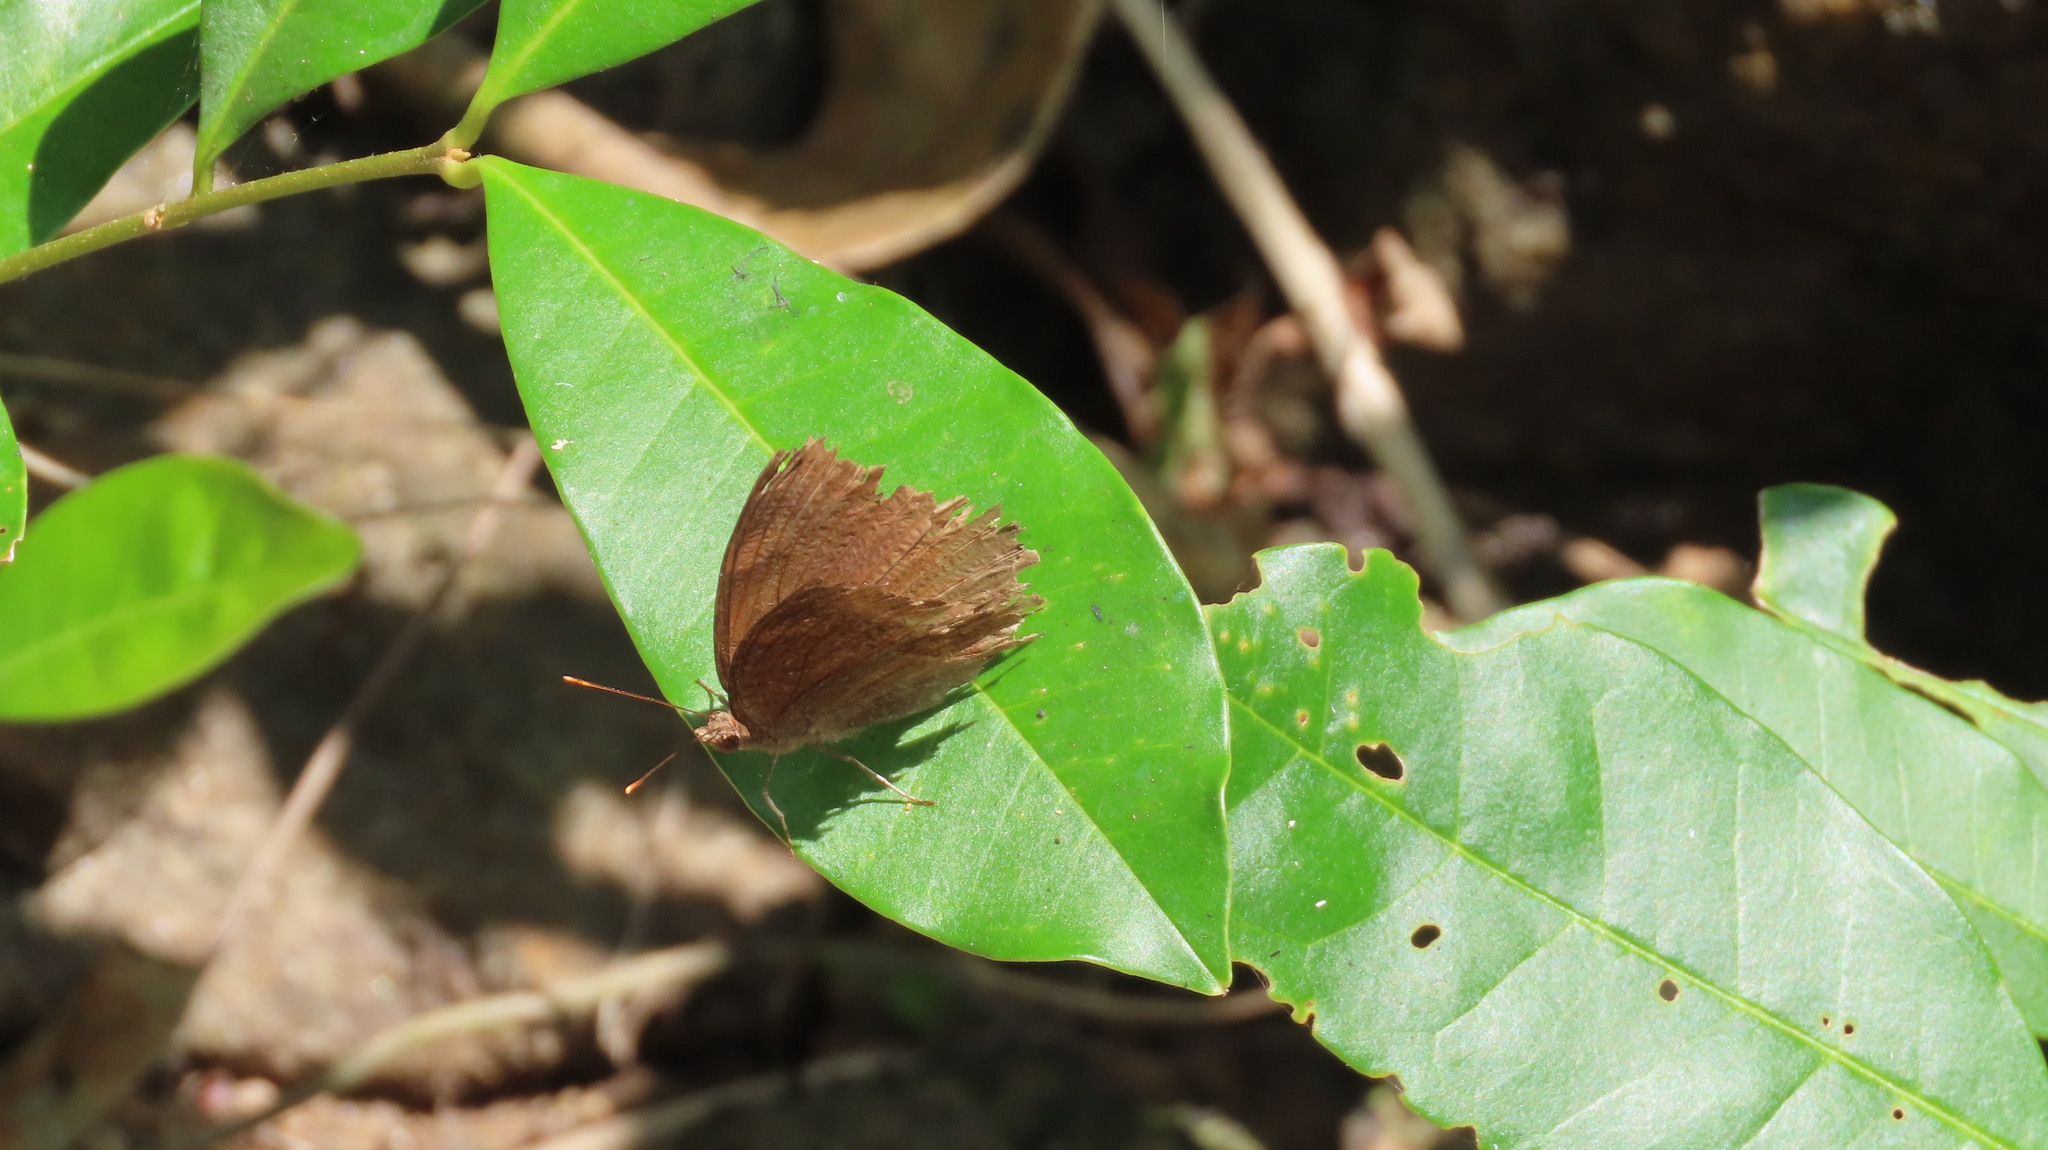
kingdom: Animalia
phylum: Arthropoda
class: Insecta
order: Lepidoptera
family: Nymphalidae
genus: Junonia
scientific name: Junonia iphita
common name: Chocolate pansy
